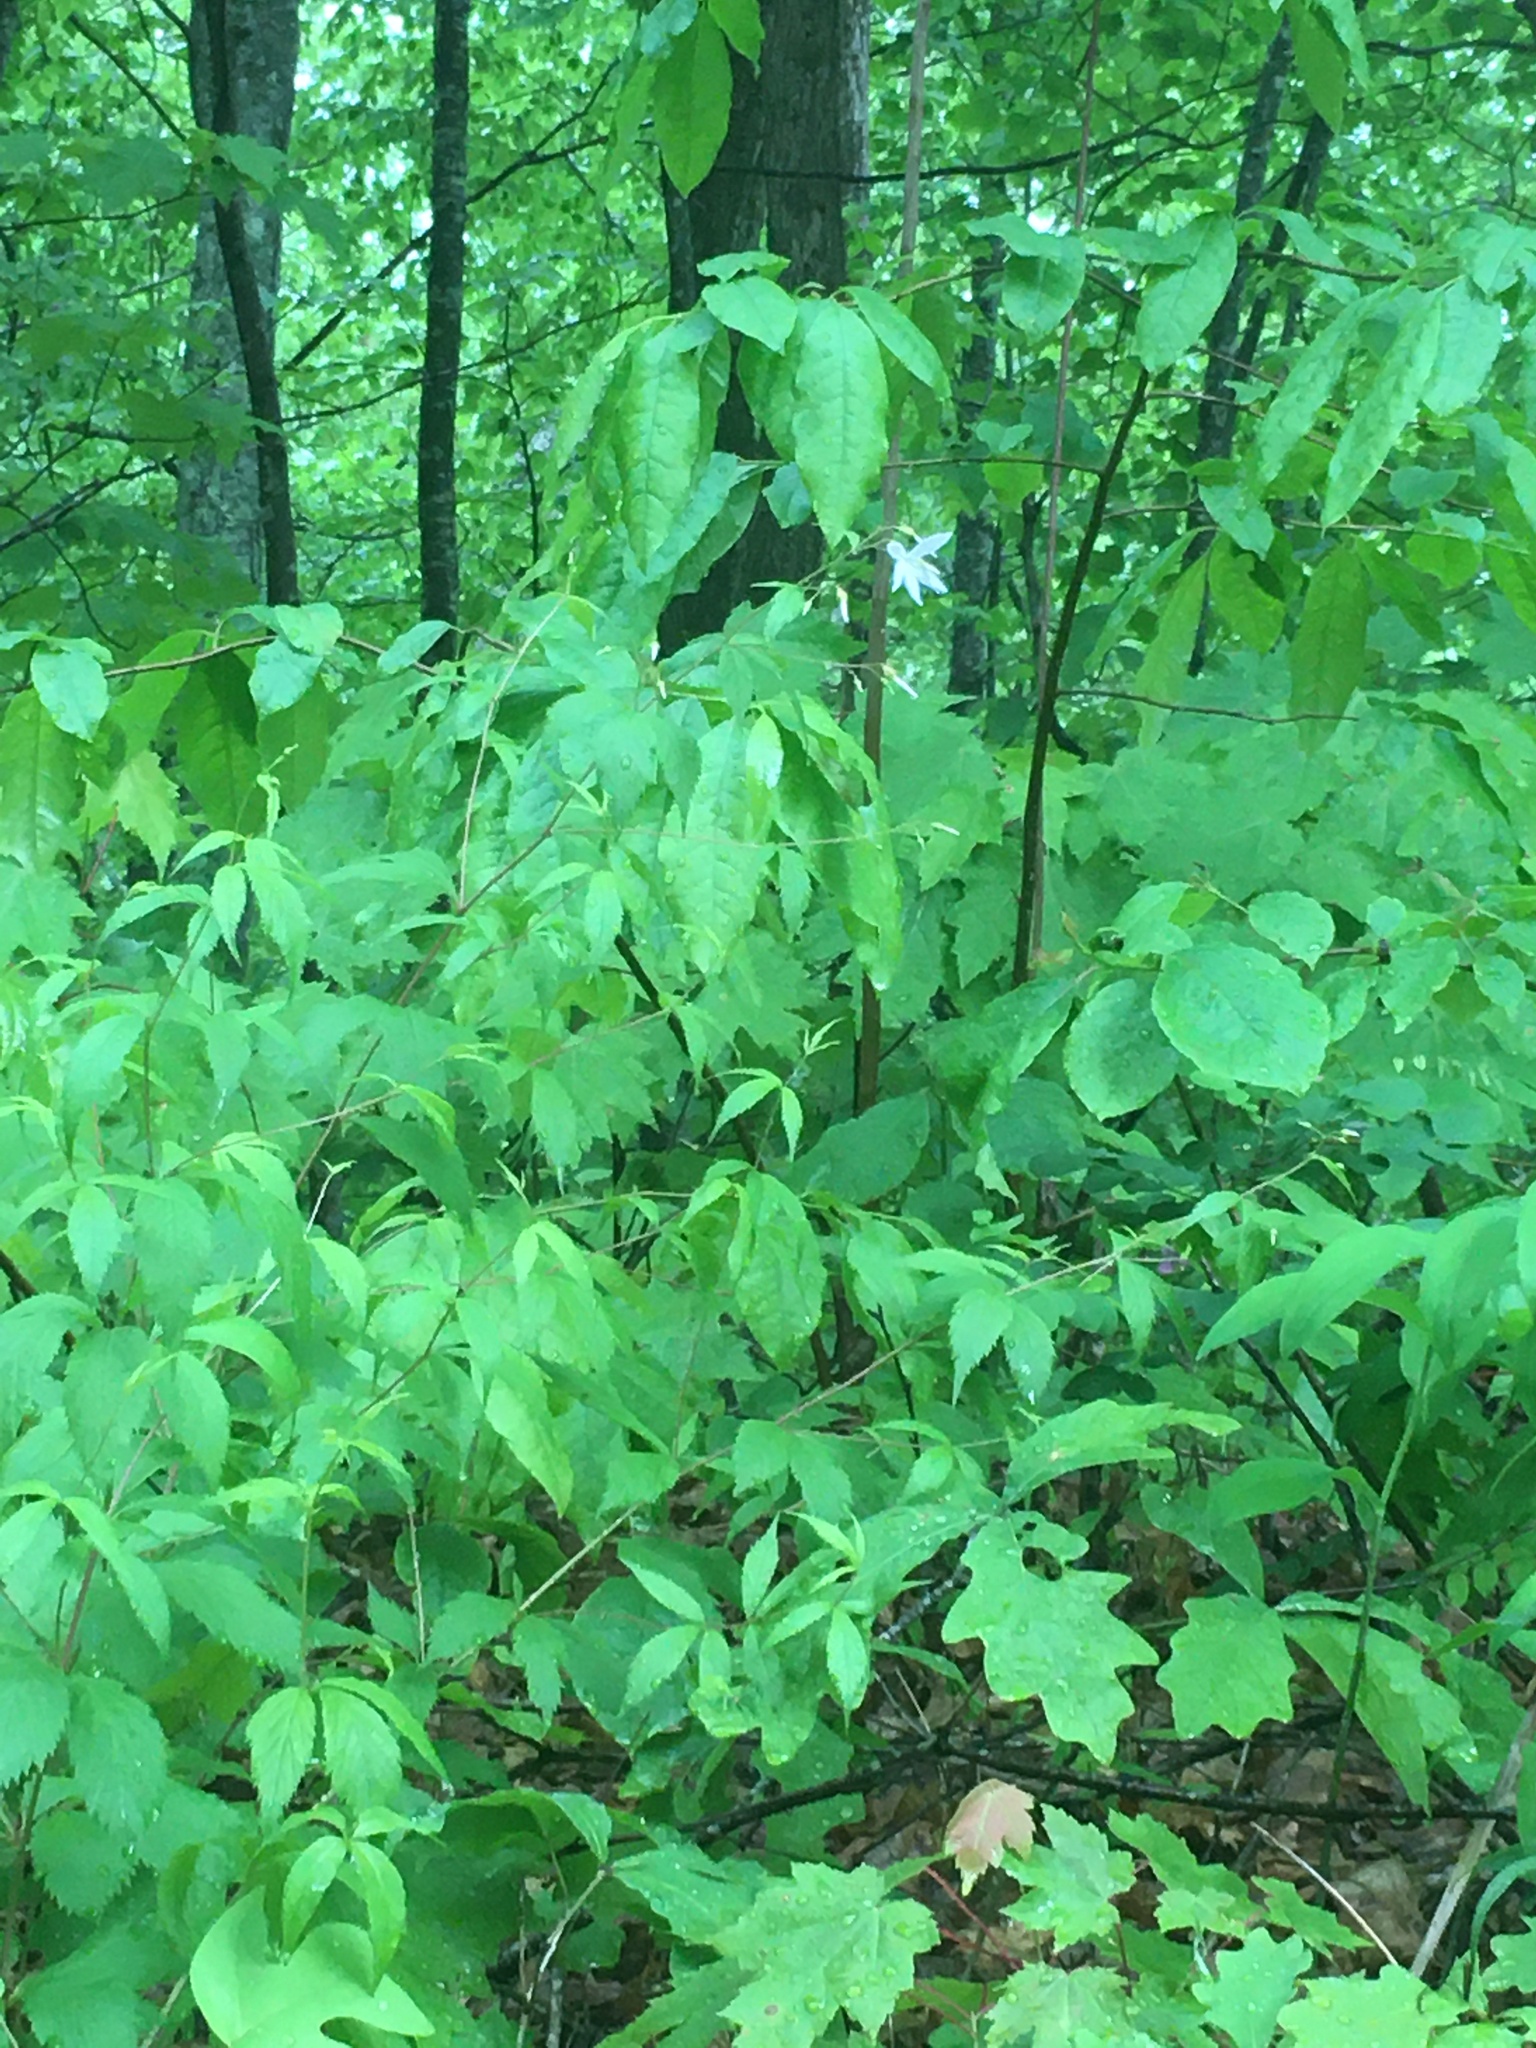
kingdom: Plantae
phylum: Tracheophyta
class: Magnoliopsida
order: Rosales
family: Rosaceae
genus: Gillenia
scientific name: Gillenia trifoliata
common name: Bowman's-root
